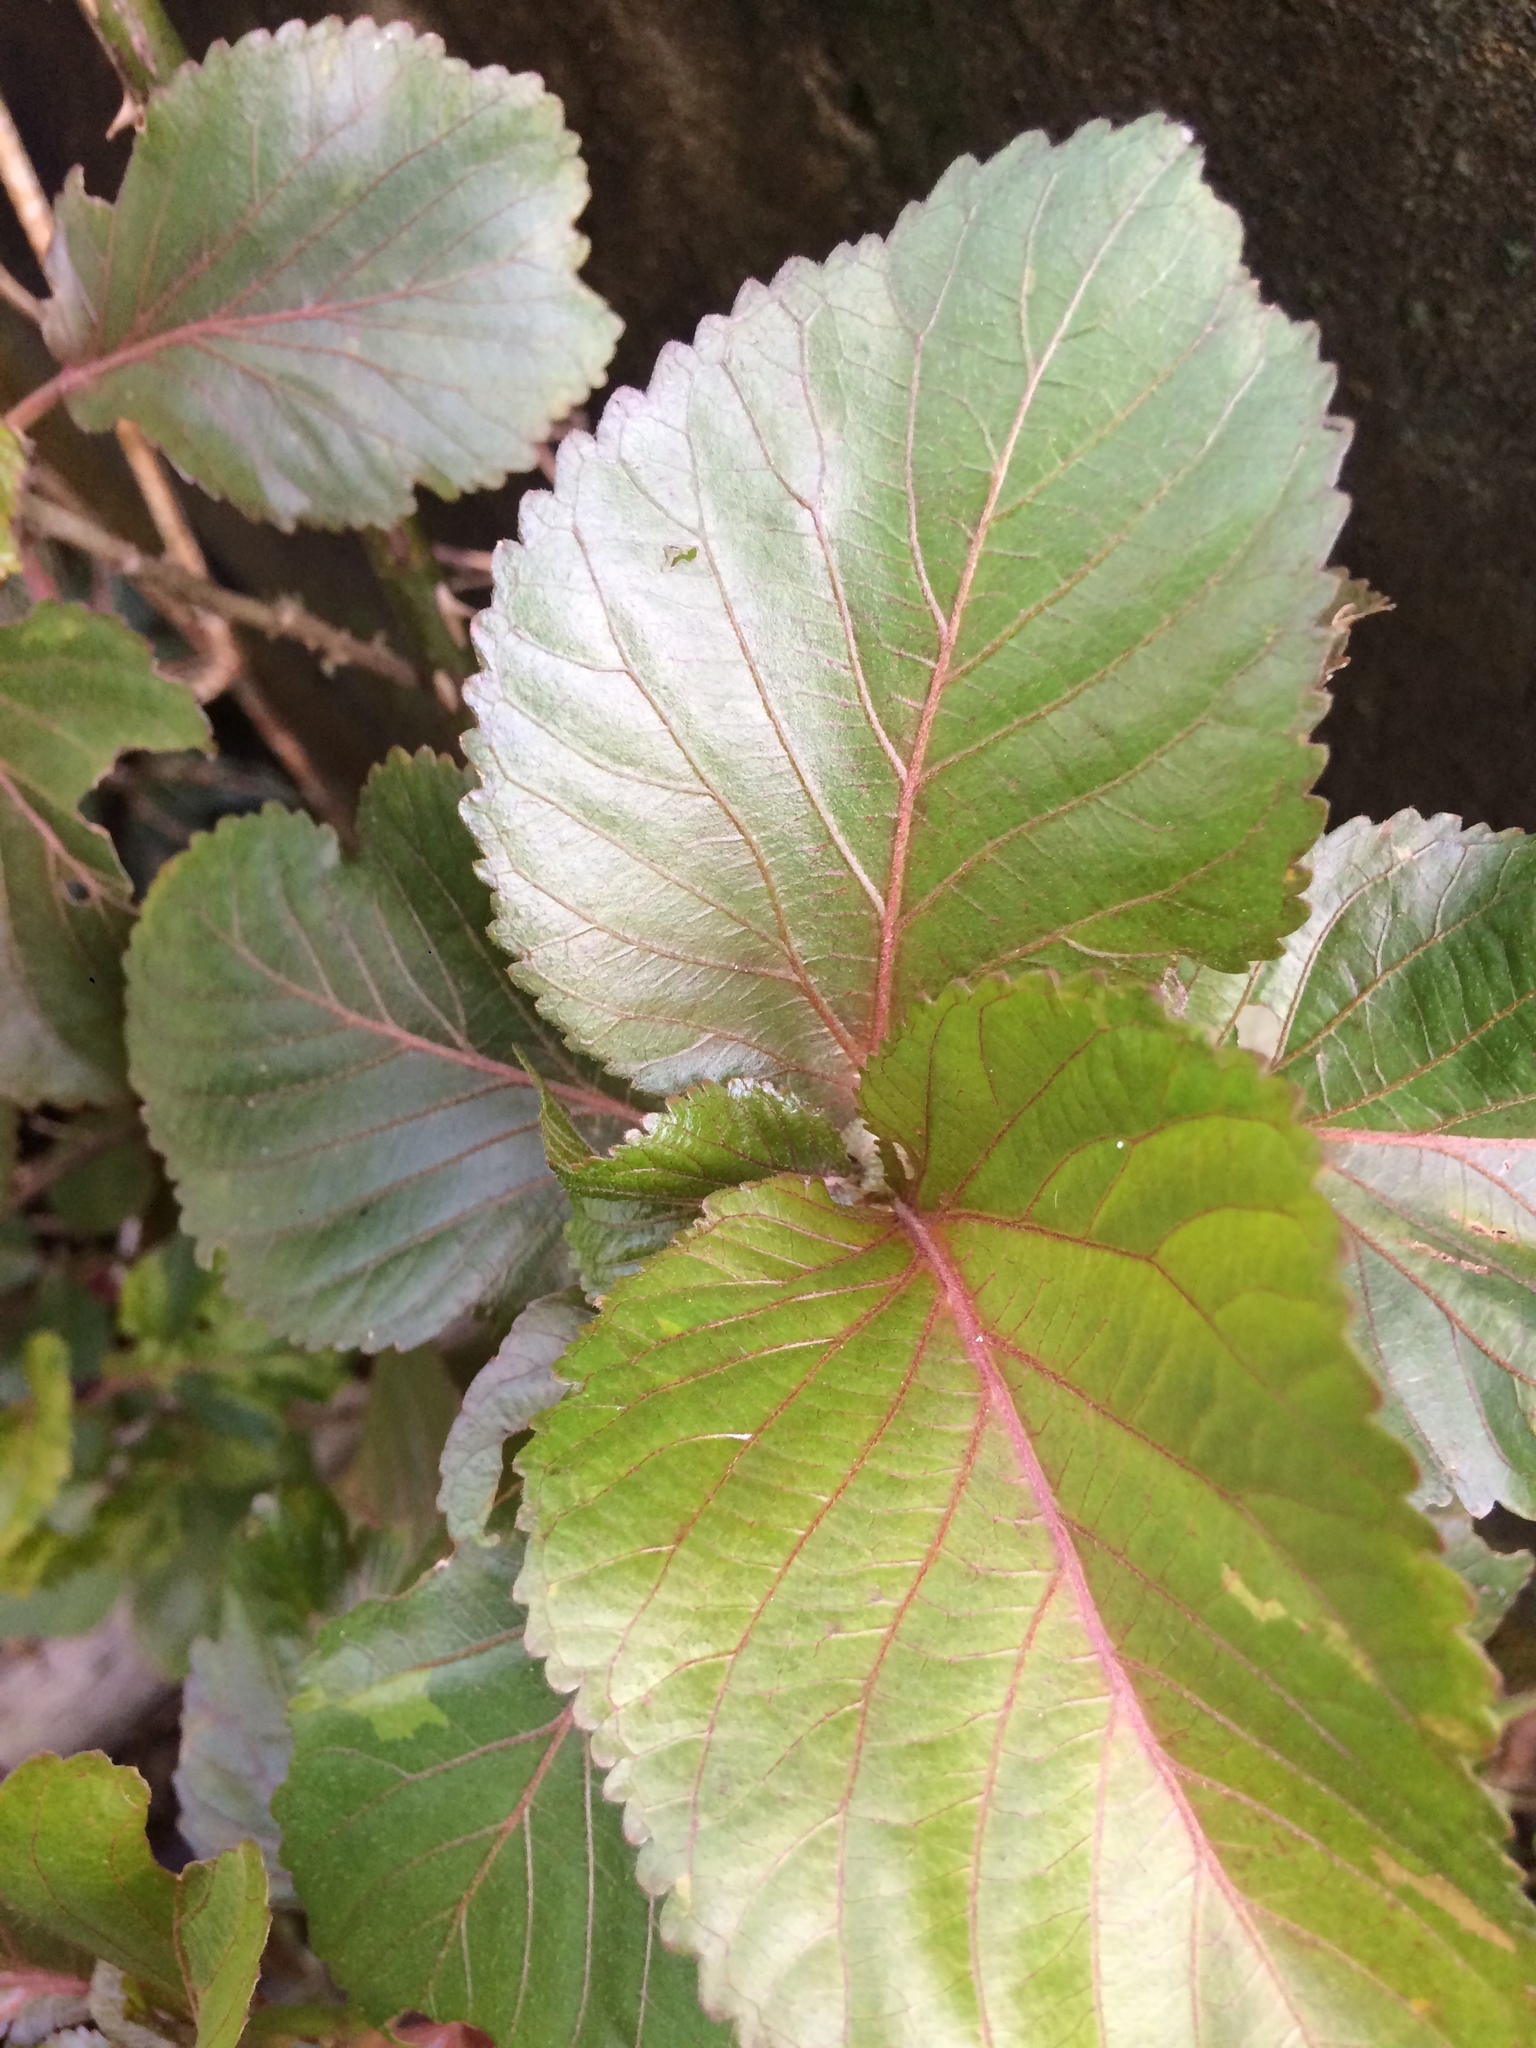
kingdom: Plantae
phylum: Tracheophyta
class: Magnoliopsida
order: Malpighiales
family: Euphorbiaceae
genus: Acalypha
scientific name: Acalypha wilkesiana
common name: Jacob's coat
